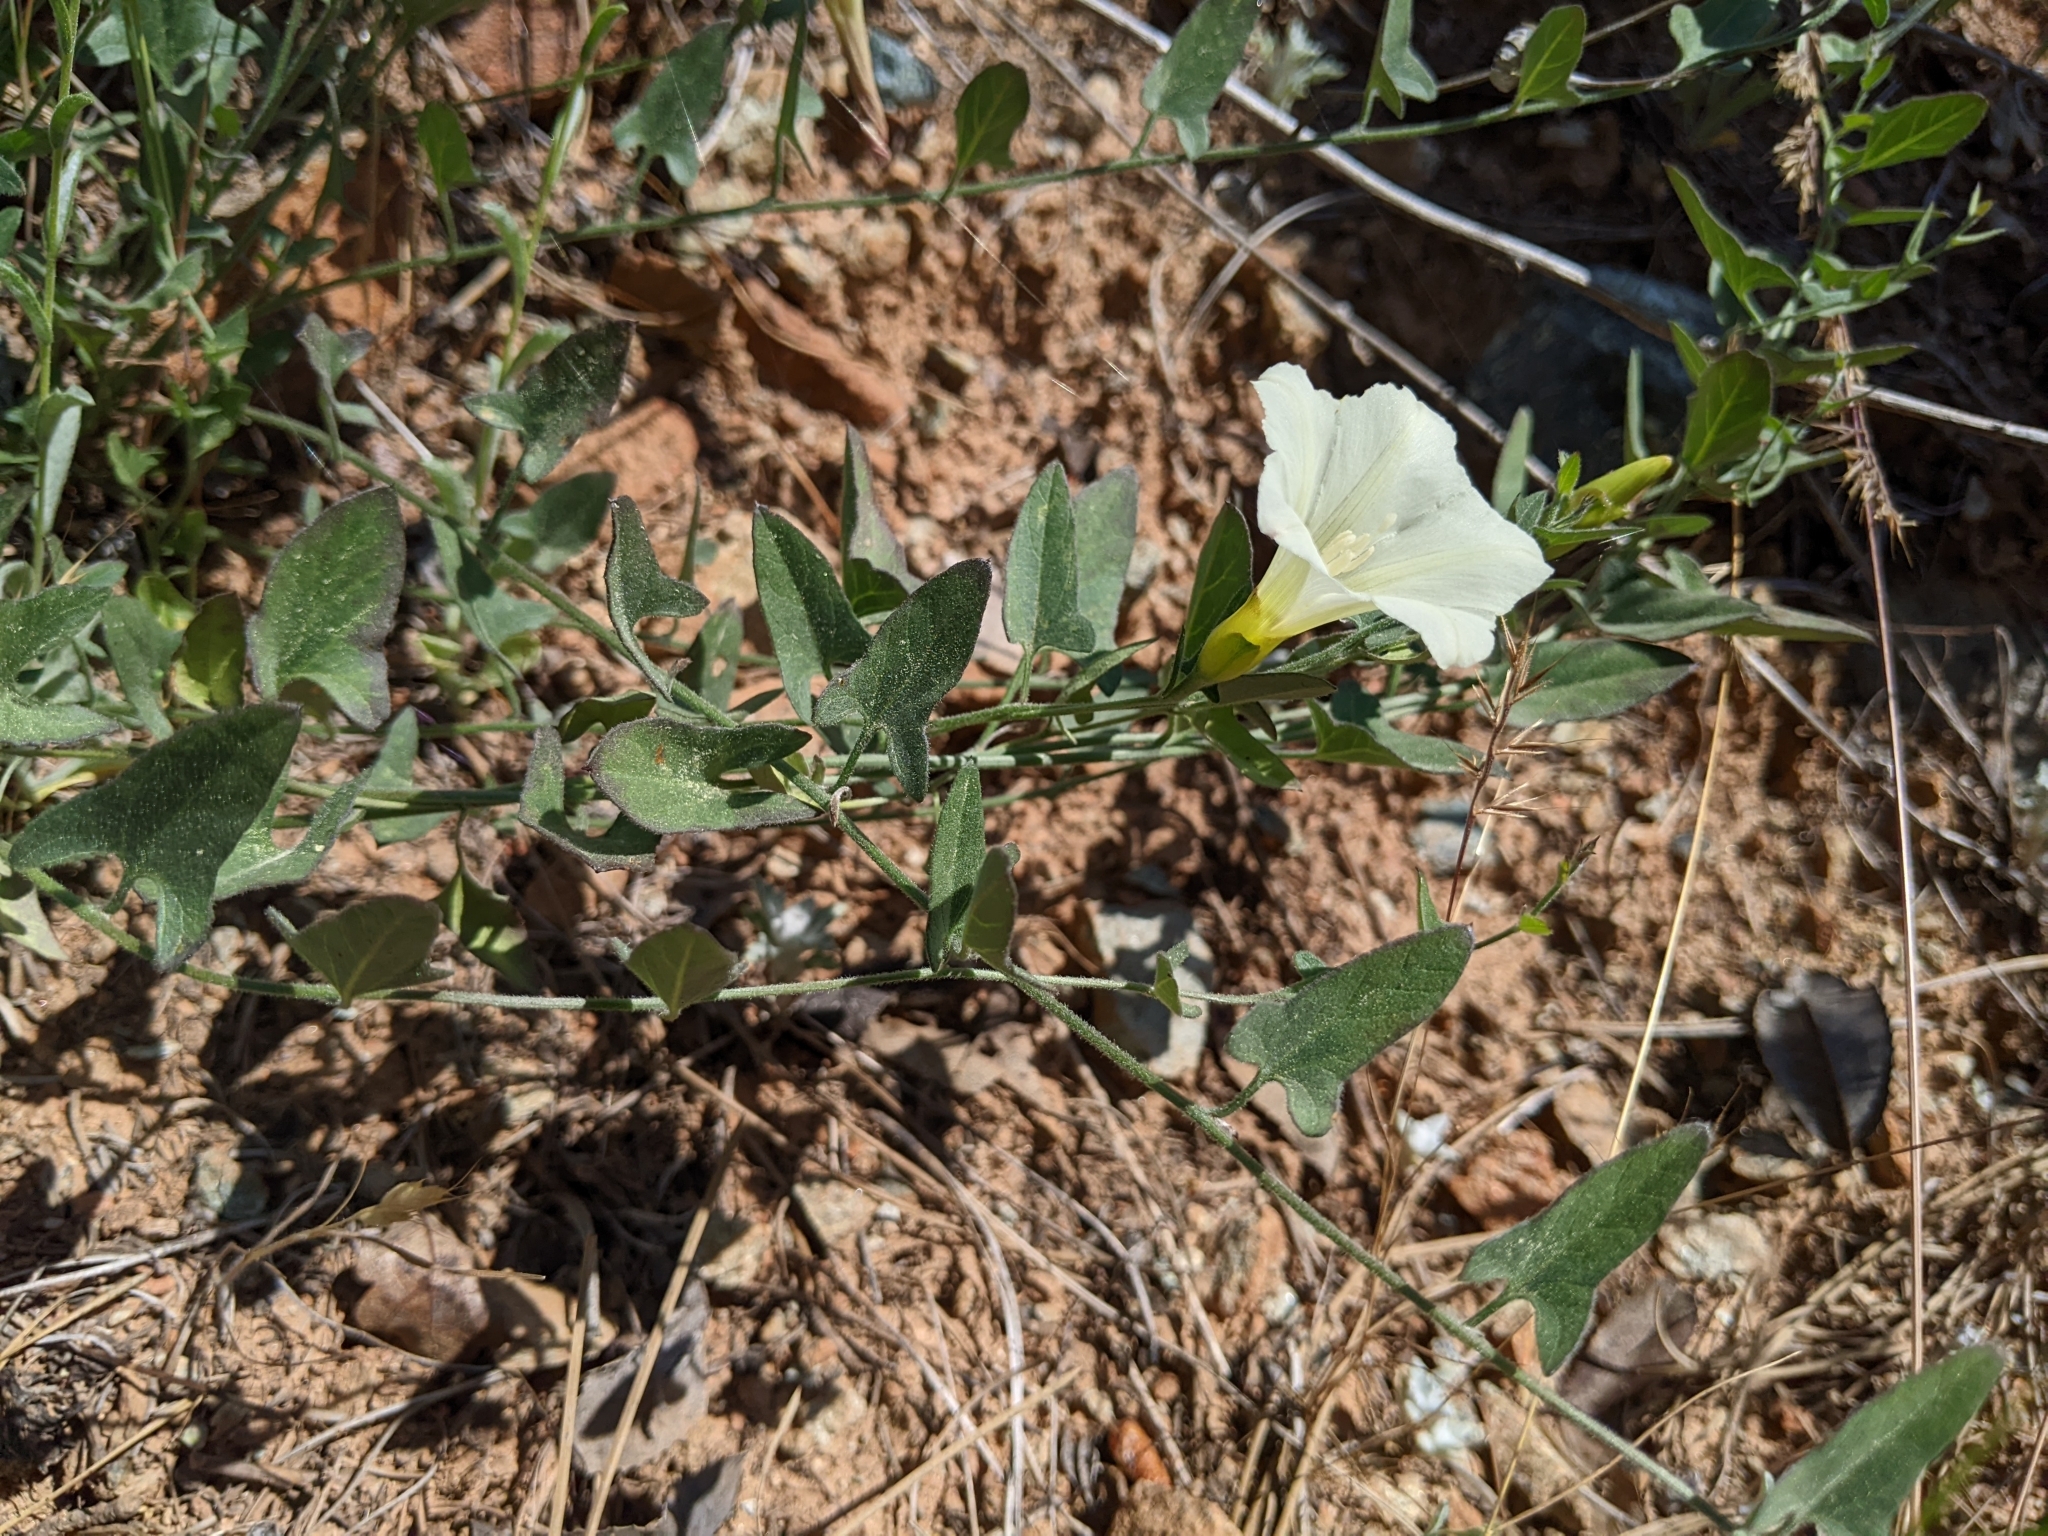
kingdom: Plantae
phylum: Tracheophyta
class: Magnoliopsida
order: Solanales
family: Convolvulaceae
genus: Calystegia
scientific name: Calystegia occidentalis
